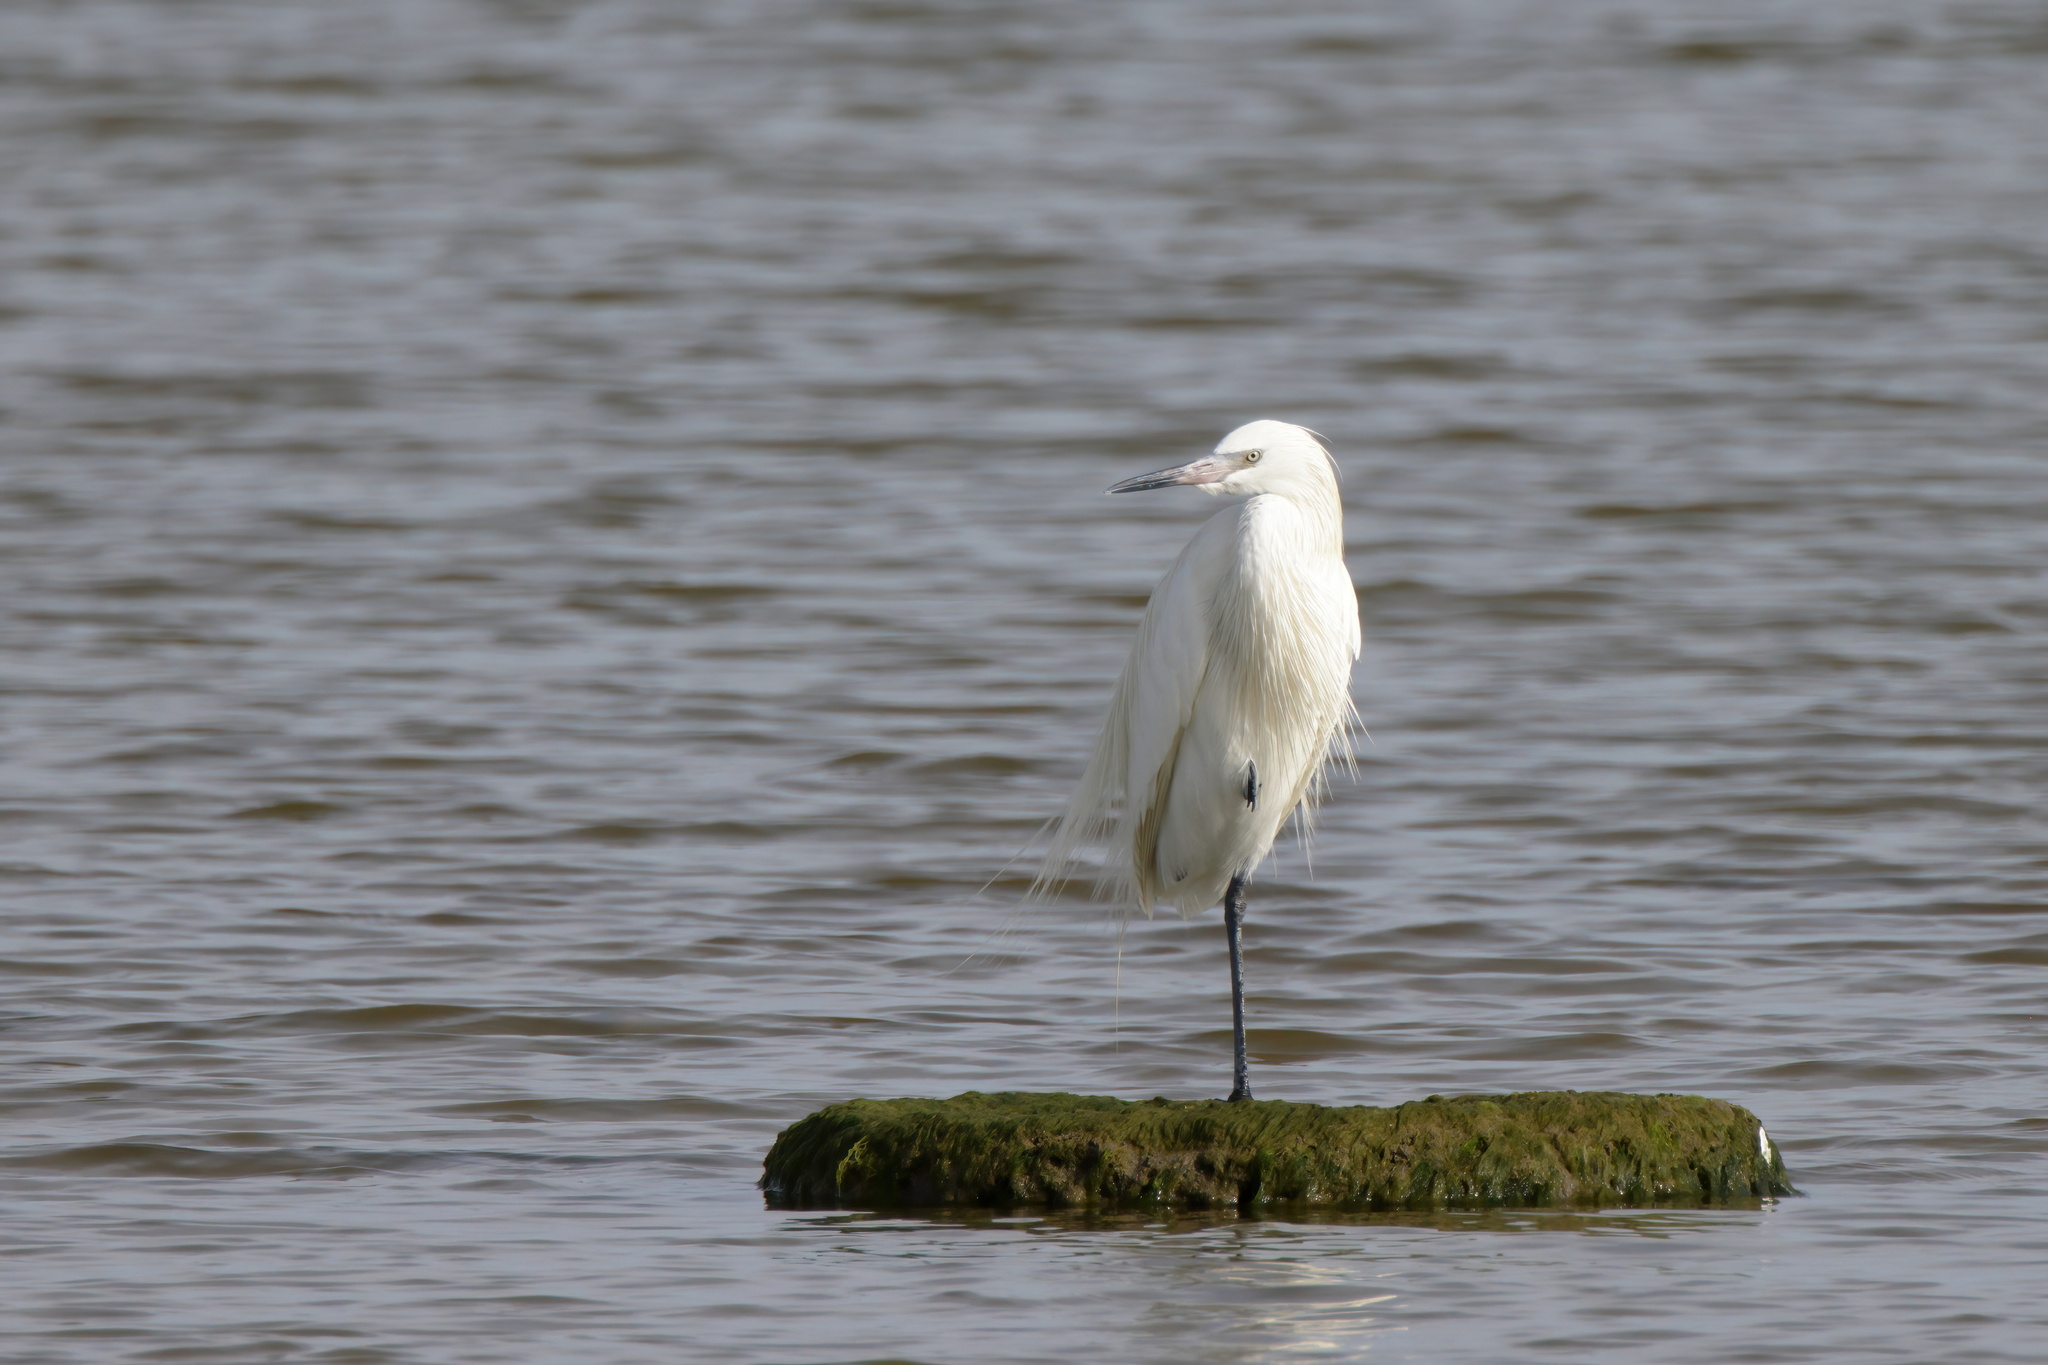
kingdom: Animalia
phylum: Chordata
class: Aves
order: Pelecaniformes
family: Ardeidae
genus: Egretta
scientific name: Egretta rufescens
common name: Reddish egret
